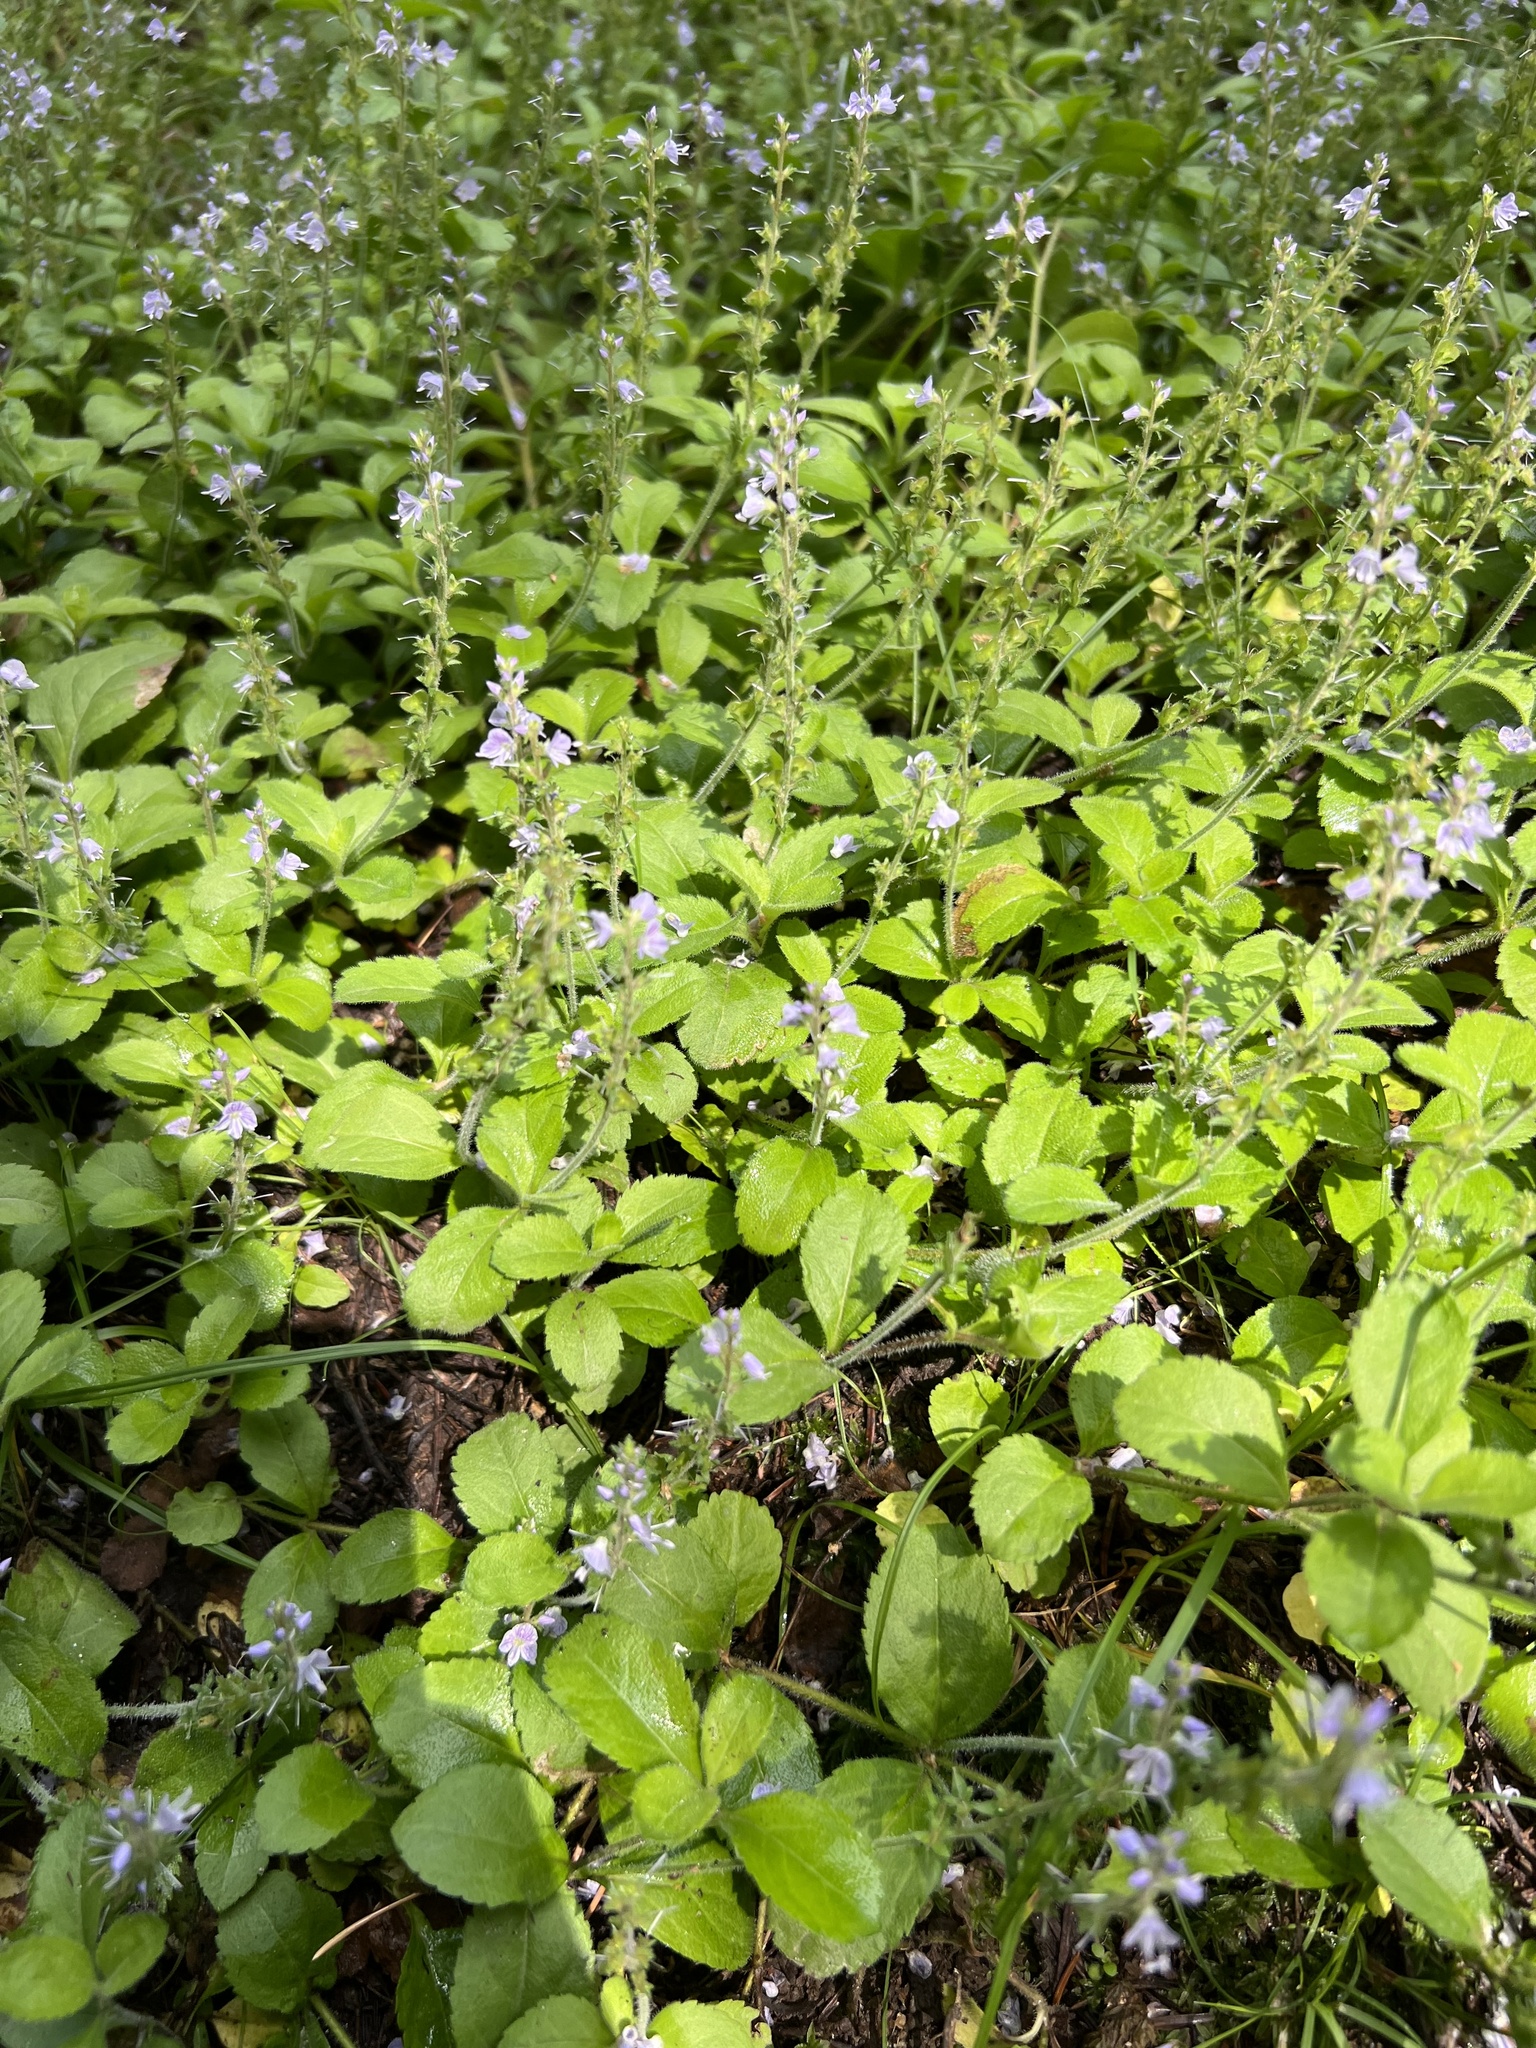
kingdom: Plantae
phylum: Tracheophyta
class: Magnoliopsida
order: Lamiales
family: Plantaginaceae
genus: Veronica
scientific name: Veronica officinalis
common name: Common speedwell
